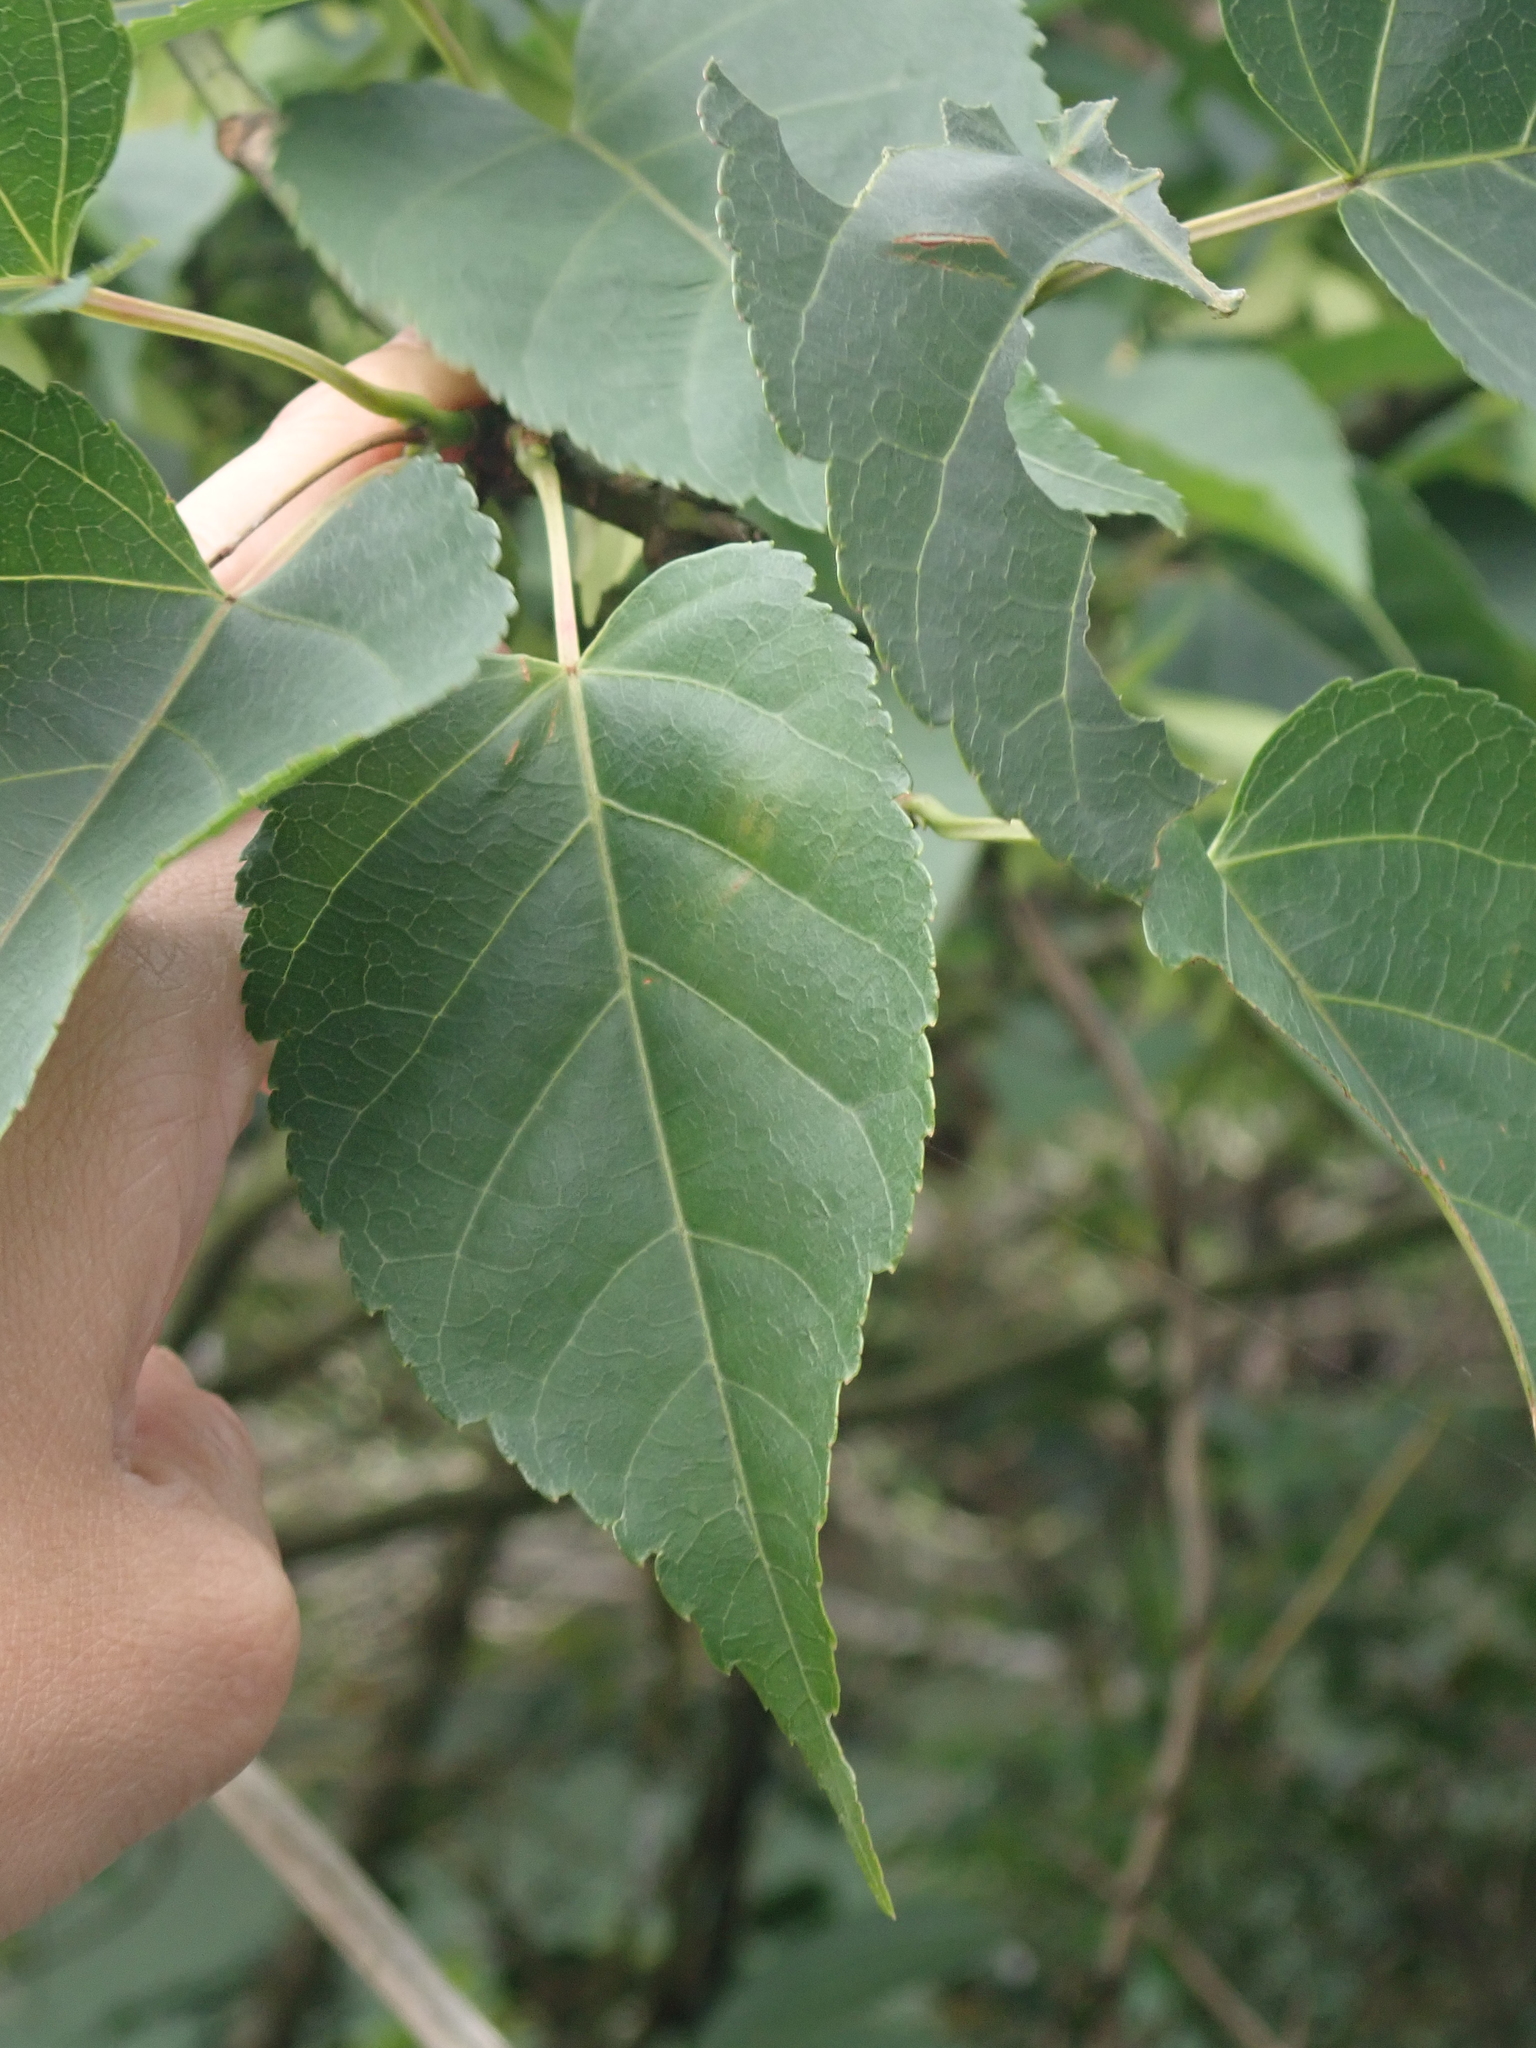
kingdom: Plantae
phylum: Tracheophyta
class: Magnoliopsida
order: Sapindales
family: Sapindaceae
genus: Acer
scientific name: Acer caudatifolium
